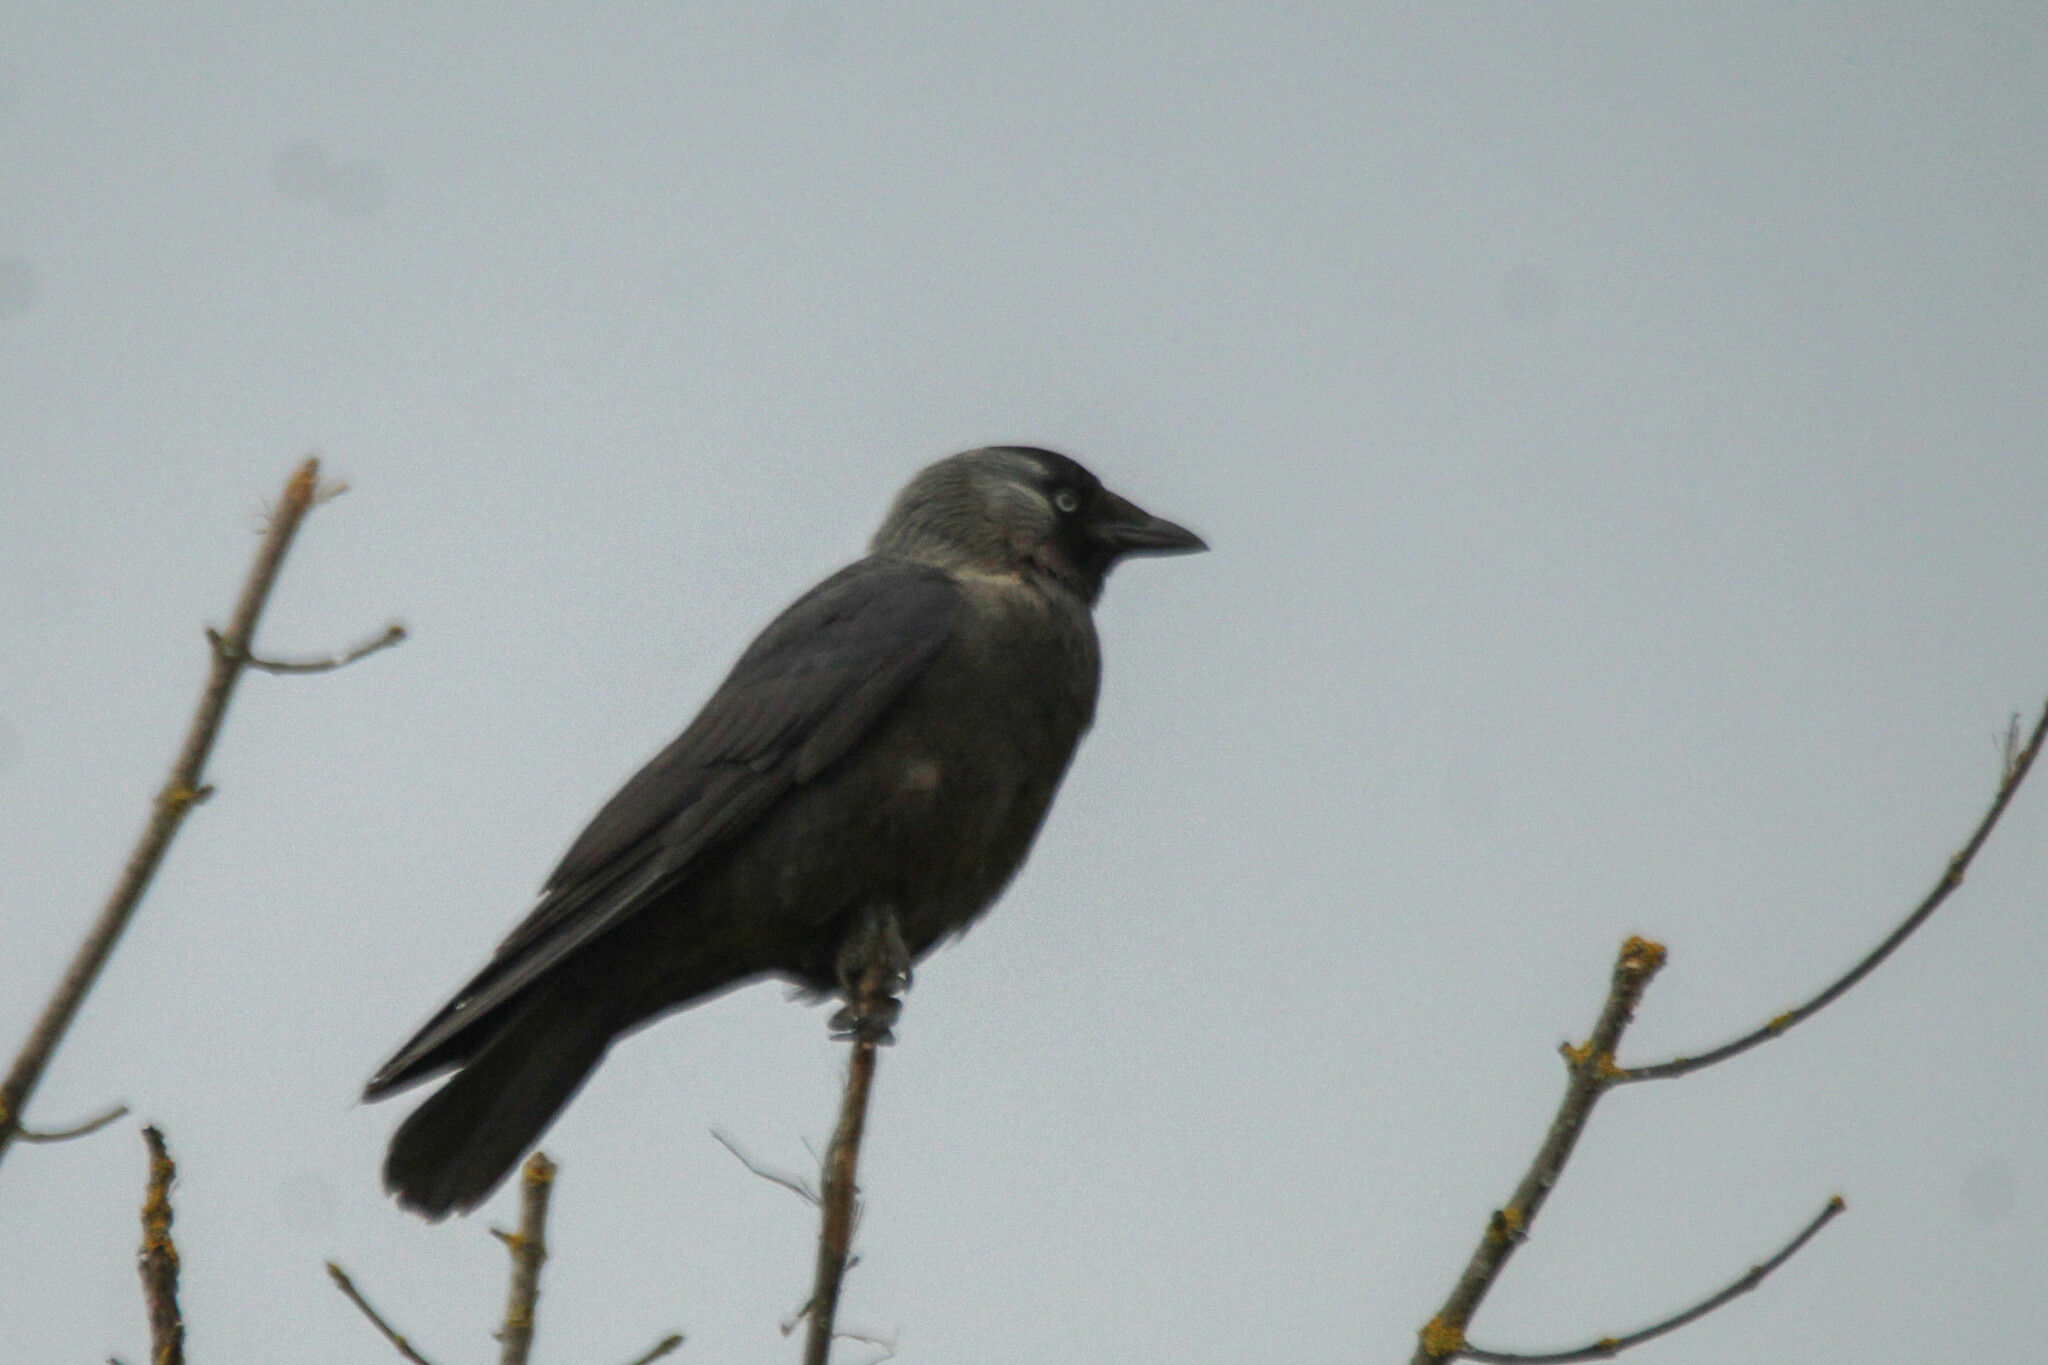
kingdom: Animalia
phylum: Chordata
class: Aves
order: Passeriformes
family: Corvidae
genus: Coloeus
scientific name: Coloeus monedula
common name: Western jackdaw
